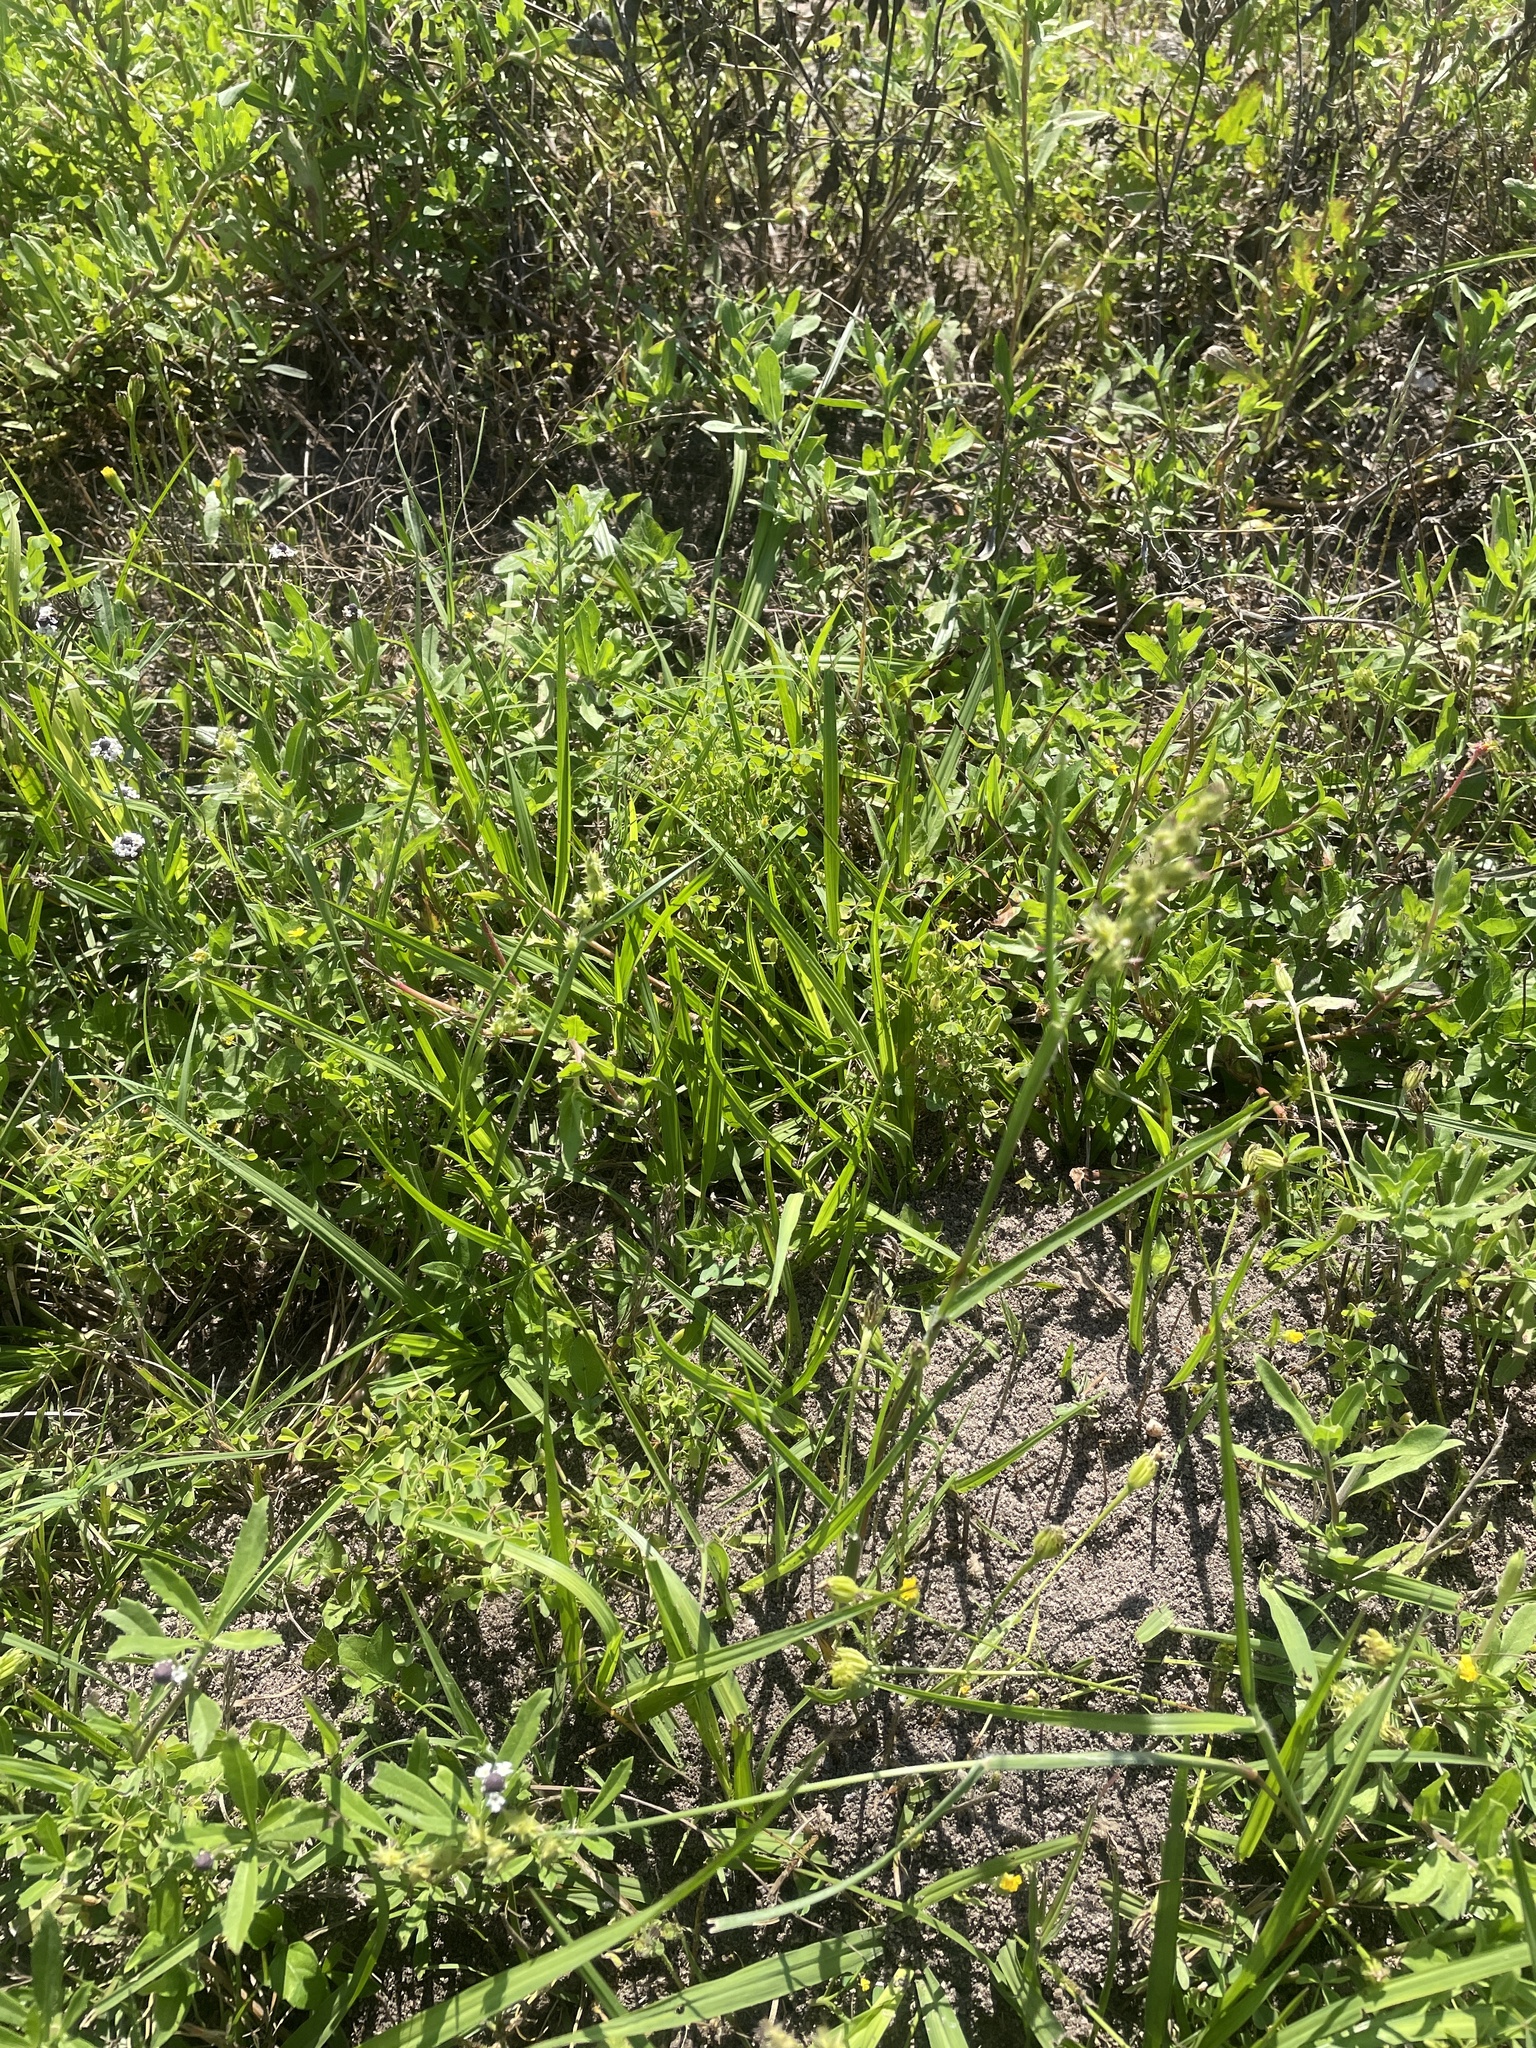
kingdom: Plantae
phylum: Tracheophyta
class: Liliopsida
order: Poales
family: Poaceae
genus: Cenchrus
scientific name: Cenchrus spinifex
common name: Coast sandbur
